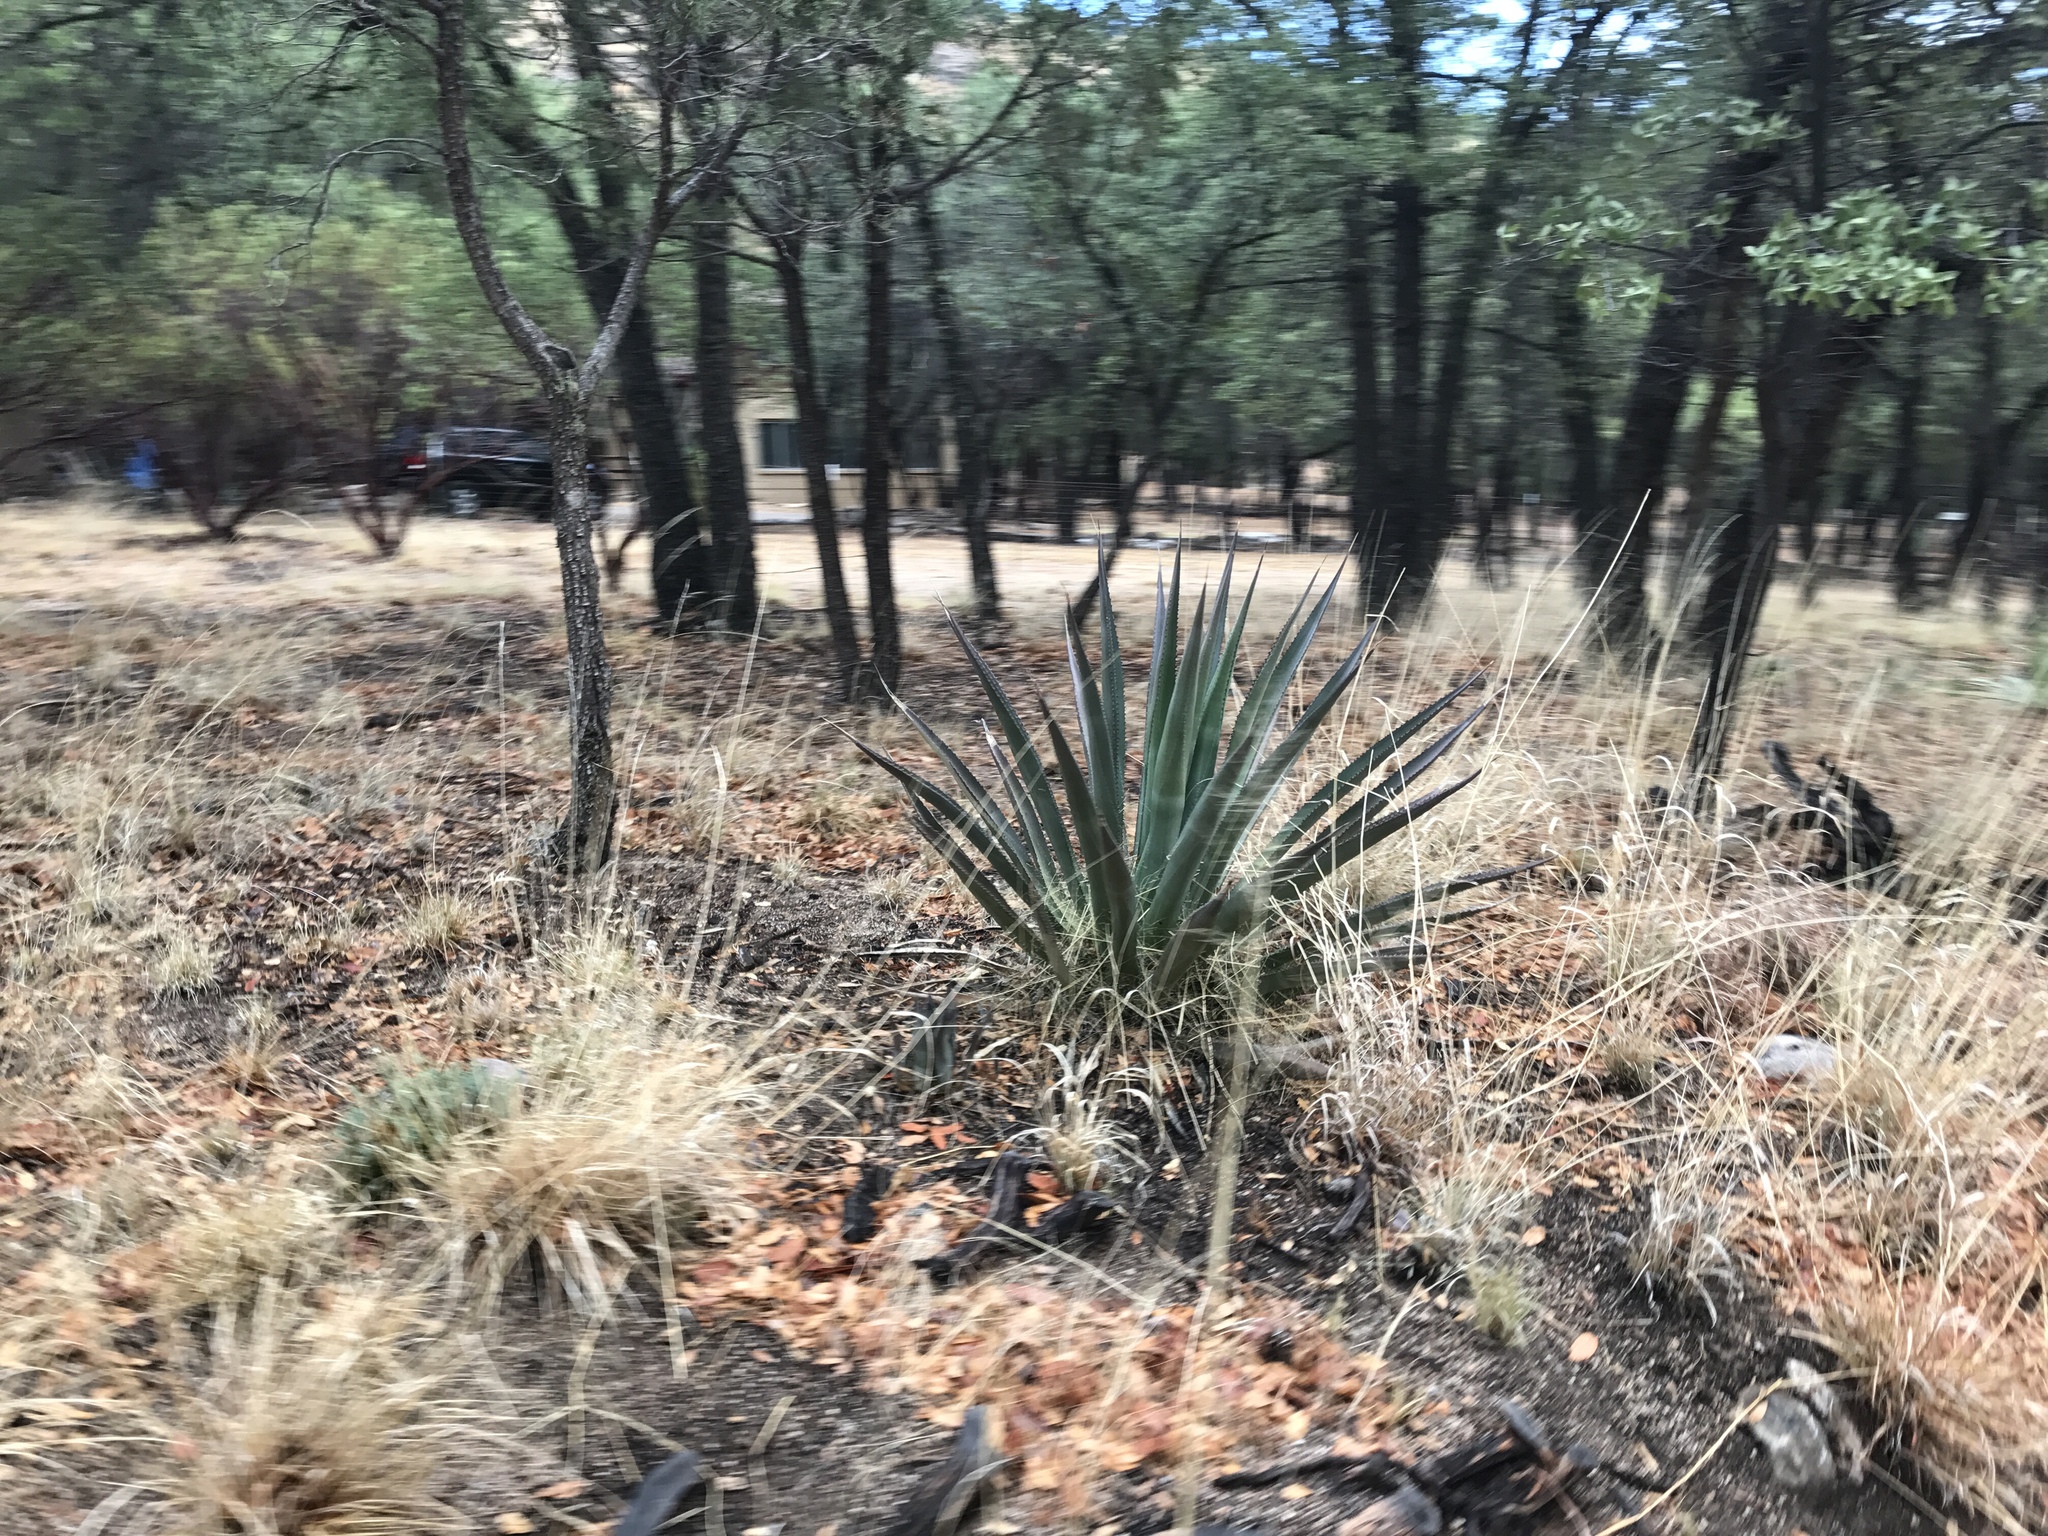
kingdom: Plantae
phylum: Tracheophyta
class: Liliopsida
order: Asparagales
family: Asparagaceae
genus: Agave
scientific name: Agave palmeri
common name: Palmer agave
